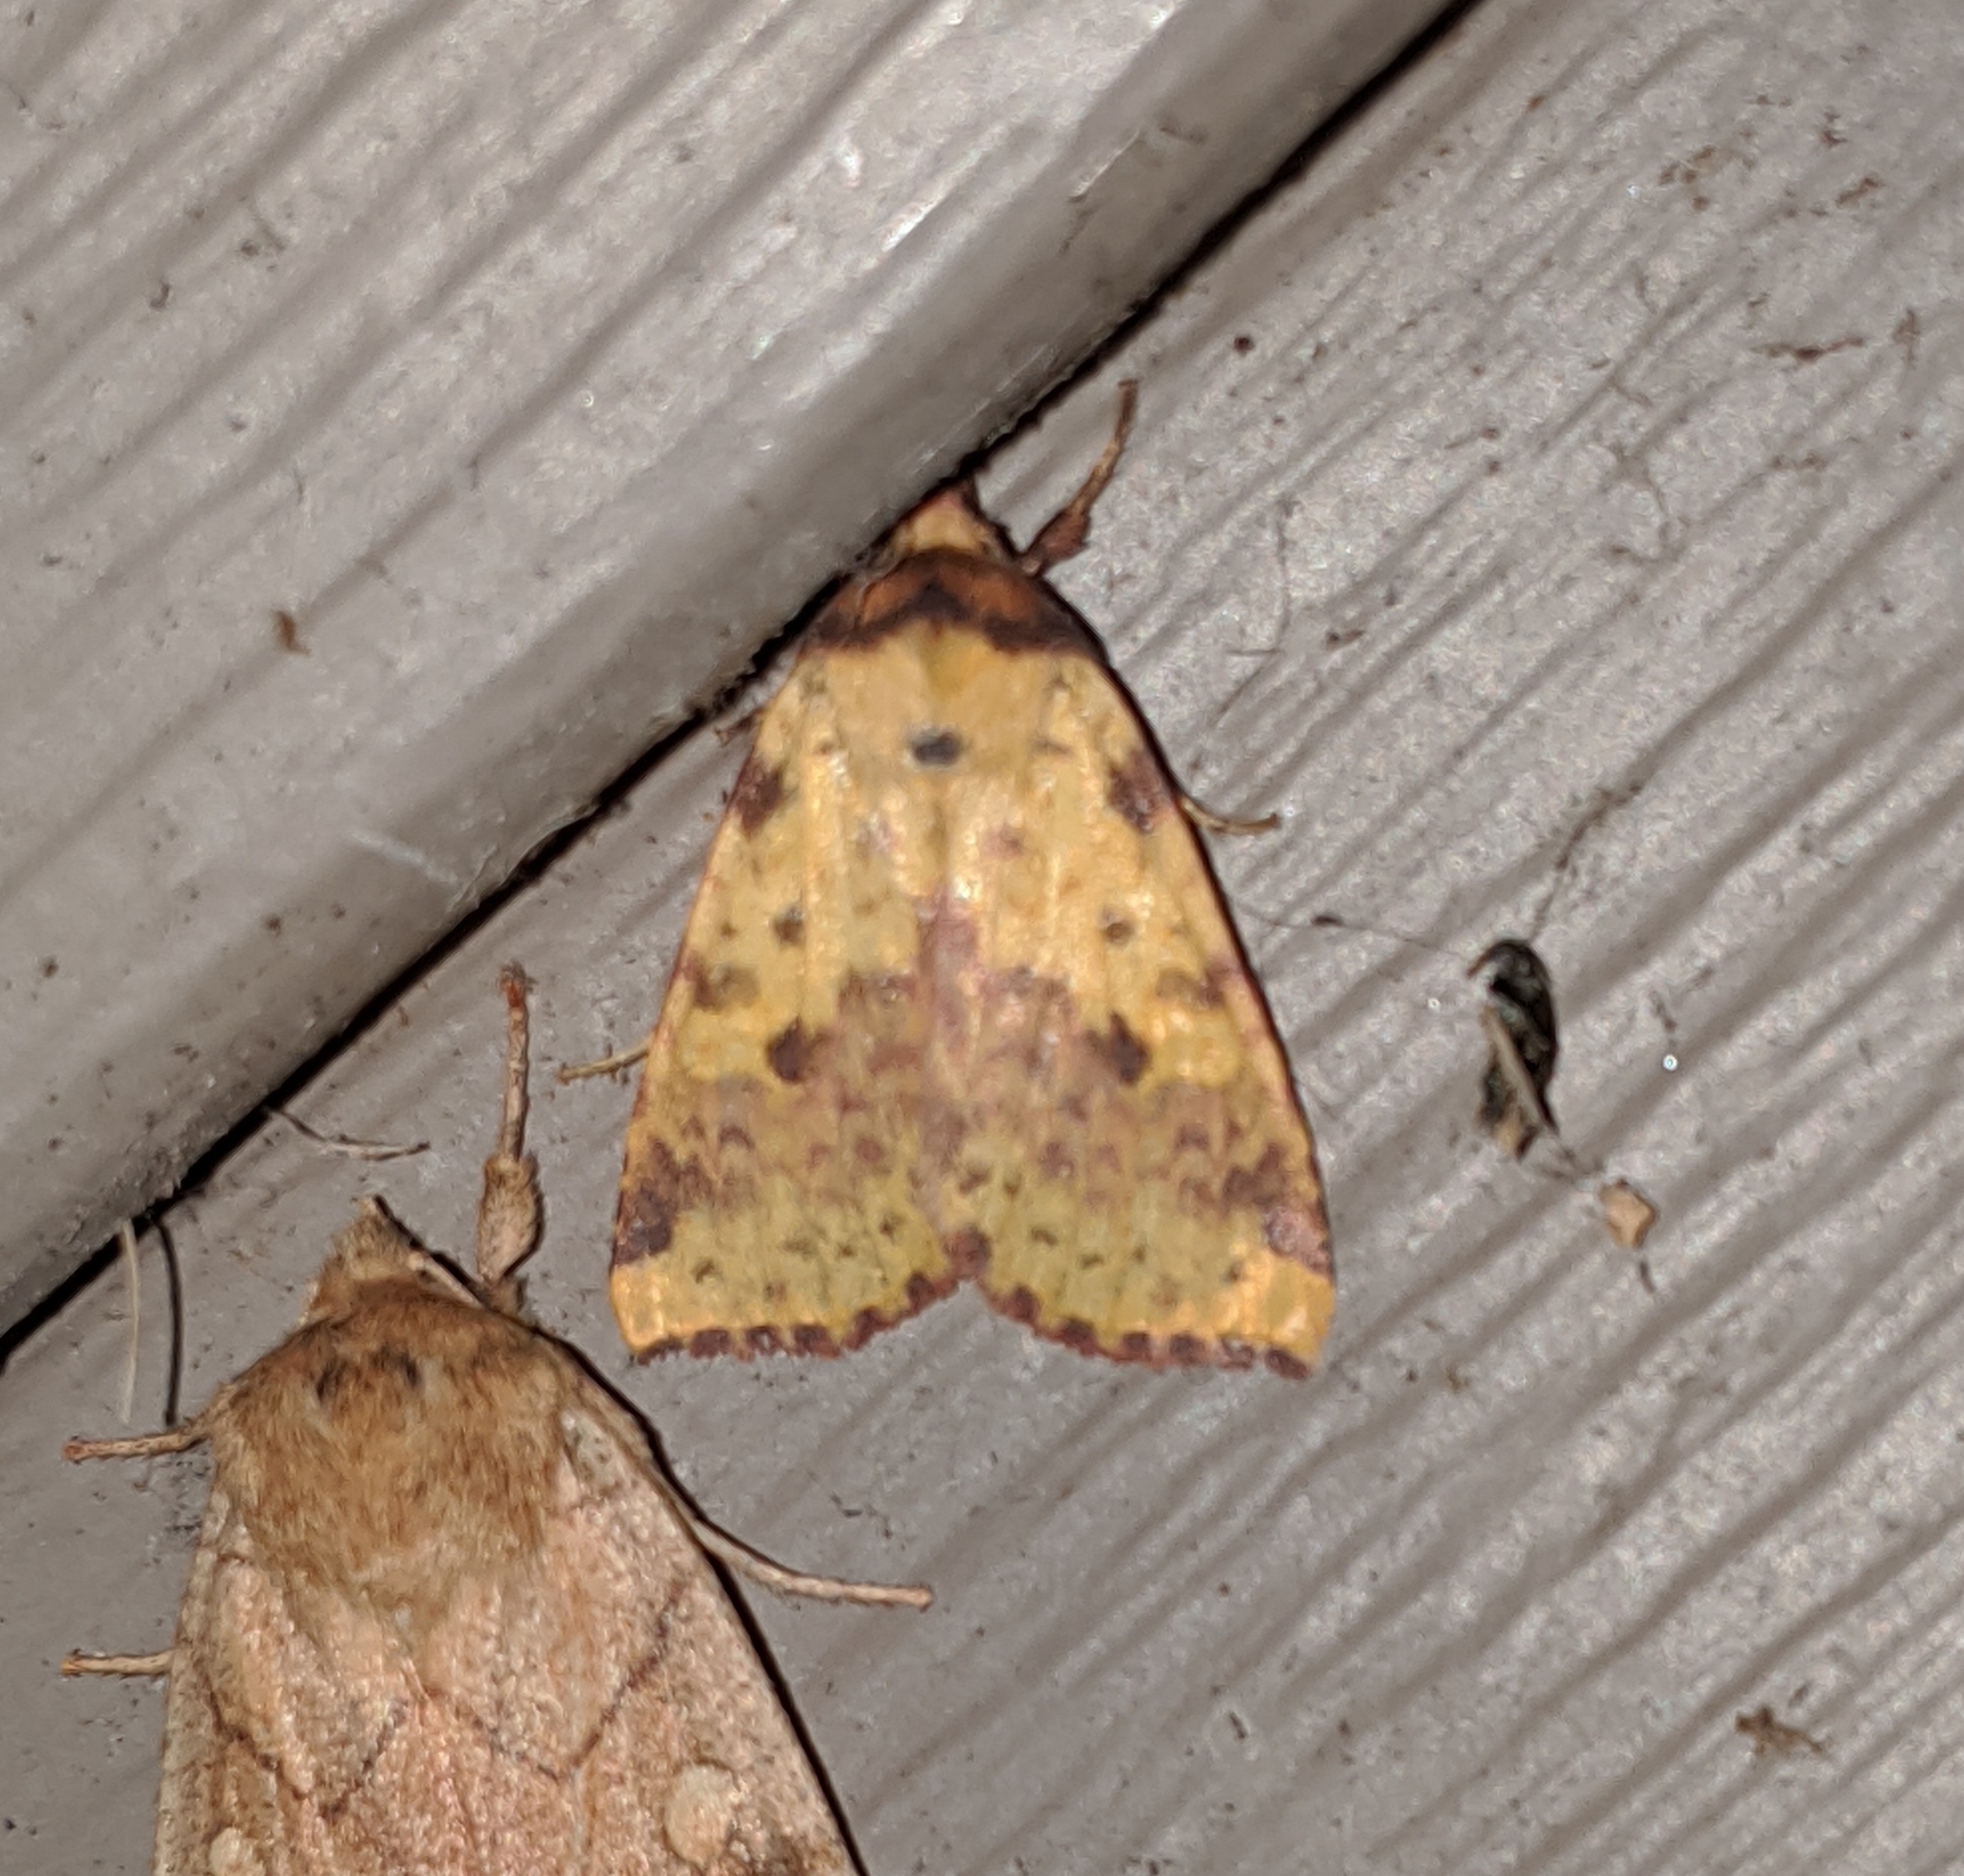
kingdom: Animalia
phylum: Arthropoda
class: Insecta
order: Lepidoptera
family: Noctuidae
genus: Xanthia
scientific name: Xanthia tatago
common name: Pink-banded sallow
